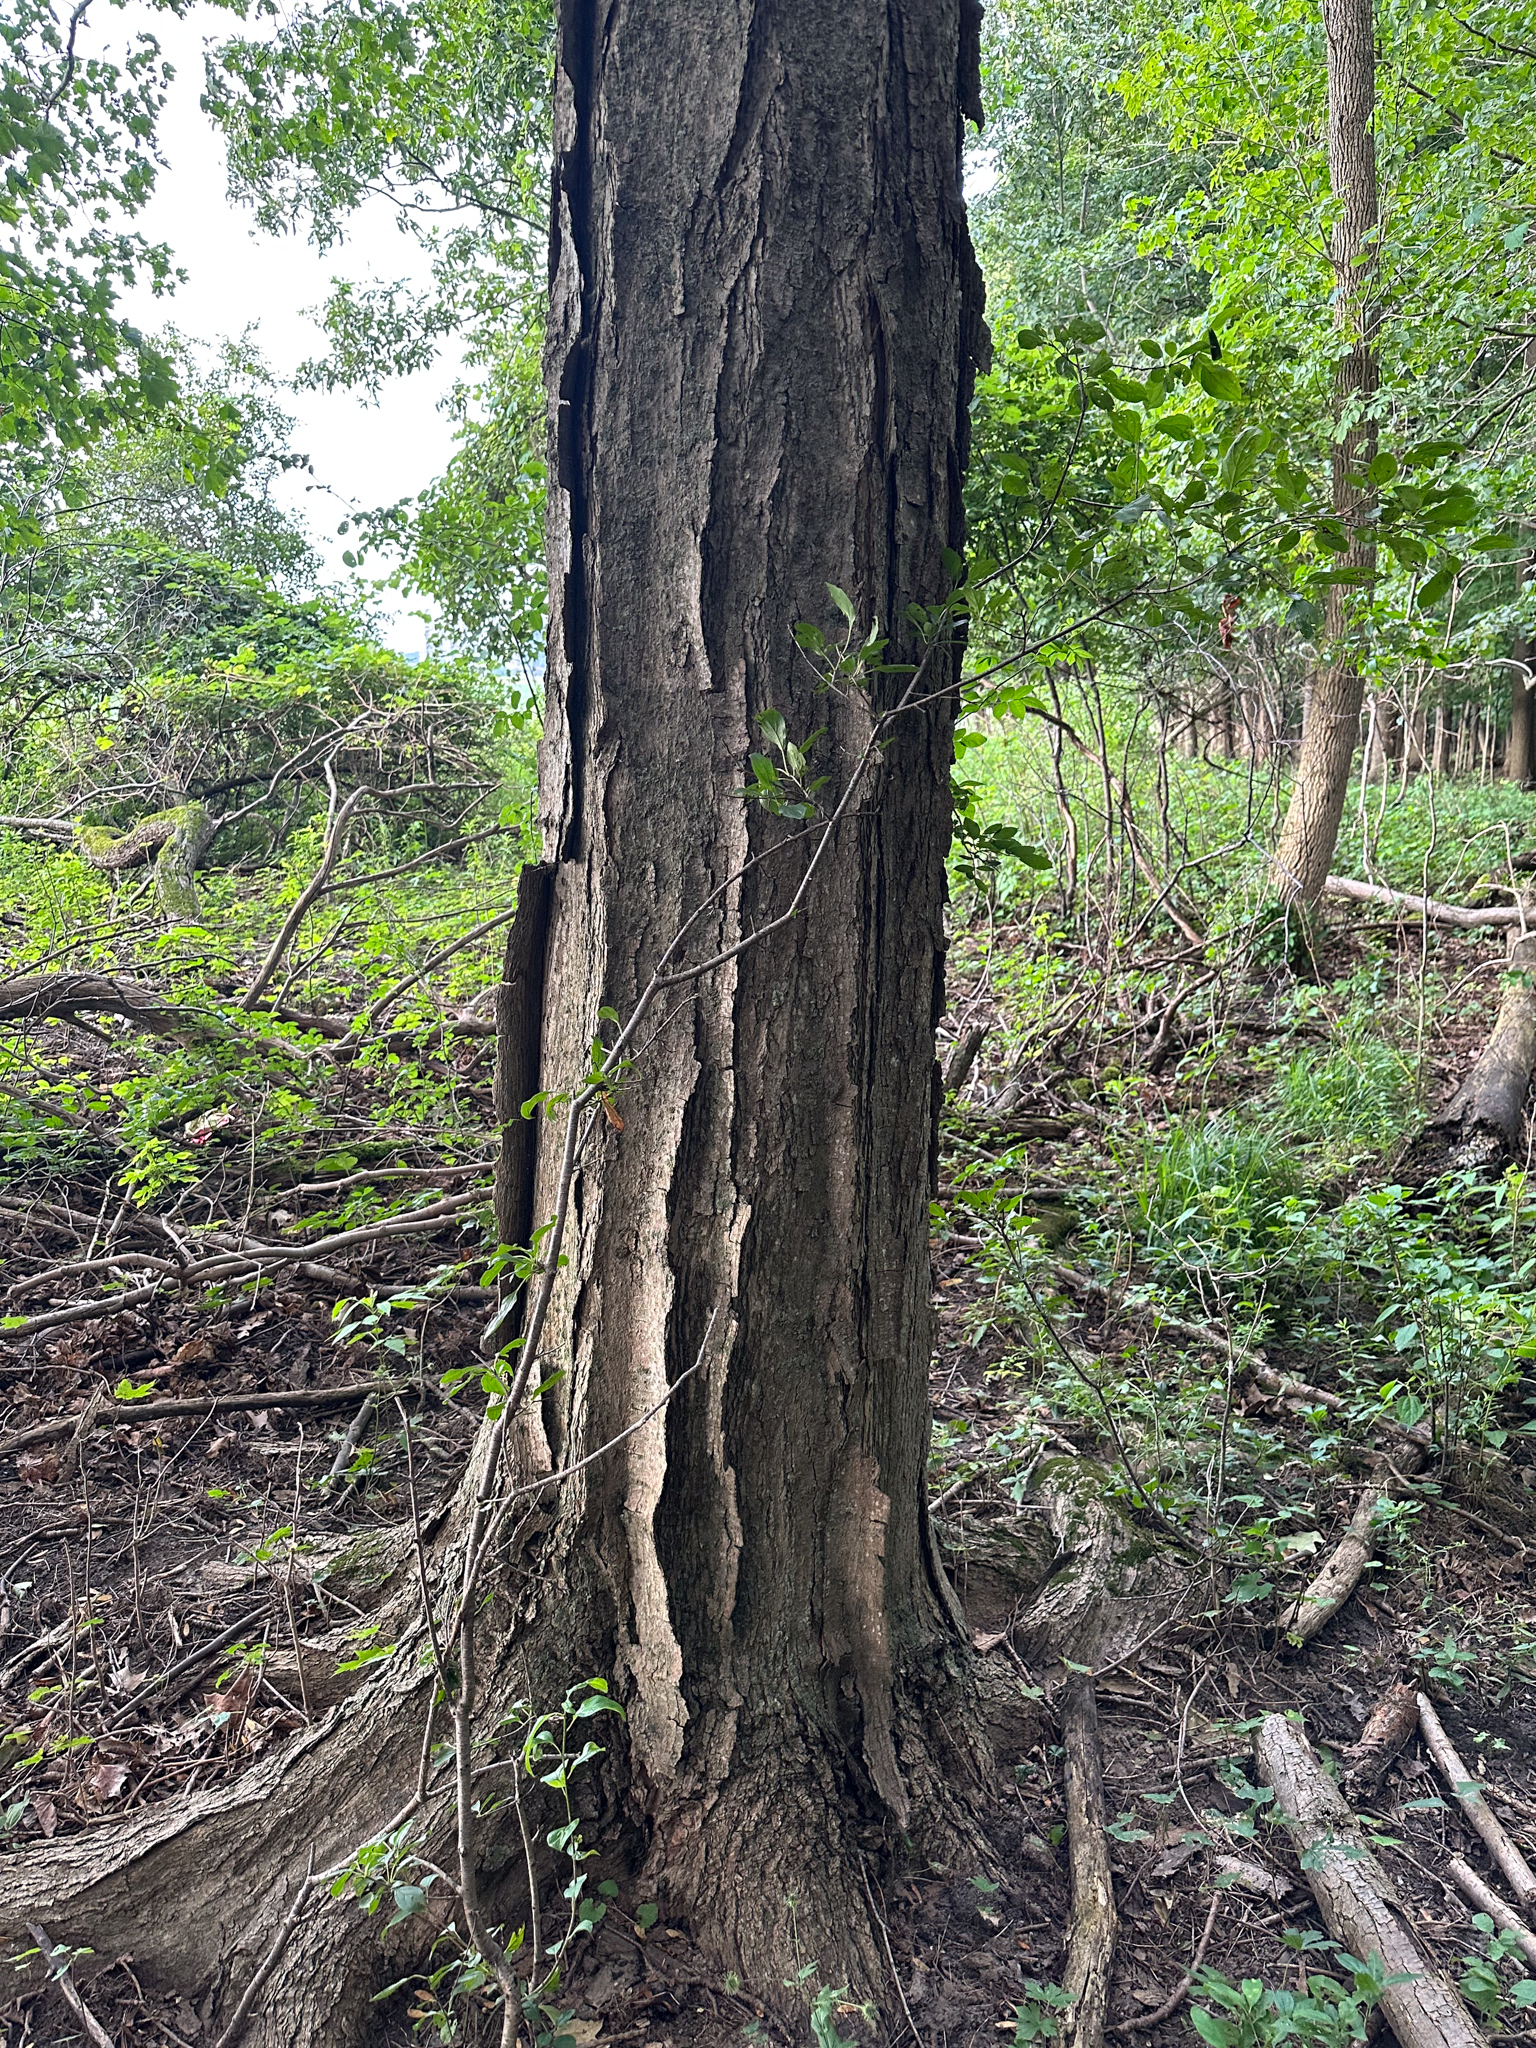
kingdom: Plantae
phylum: Tracheophyta
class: Magnoliopsida
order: Sapindales
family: Sapindaceae
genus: Acer
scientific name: Acer saccharum
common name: Sugar maple
